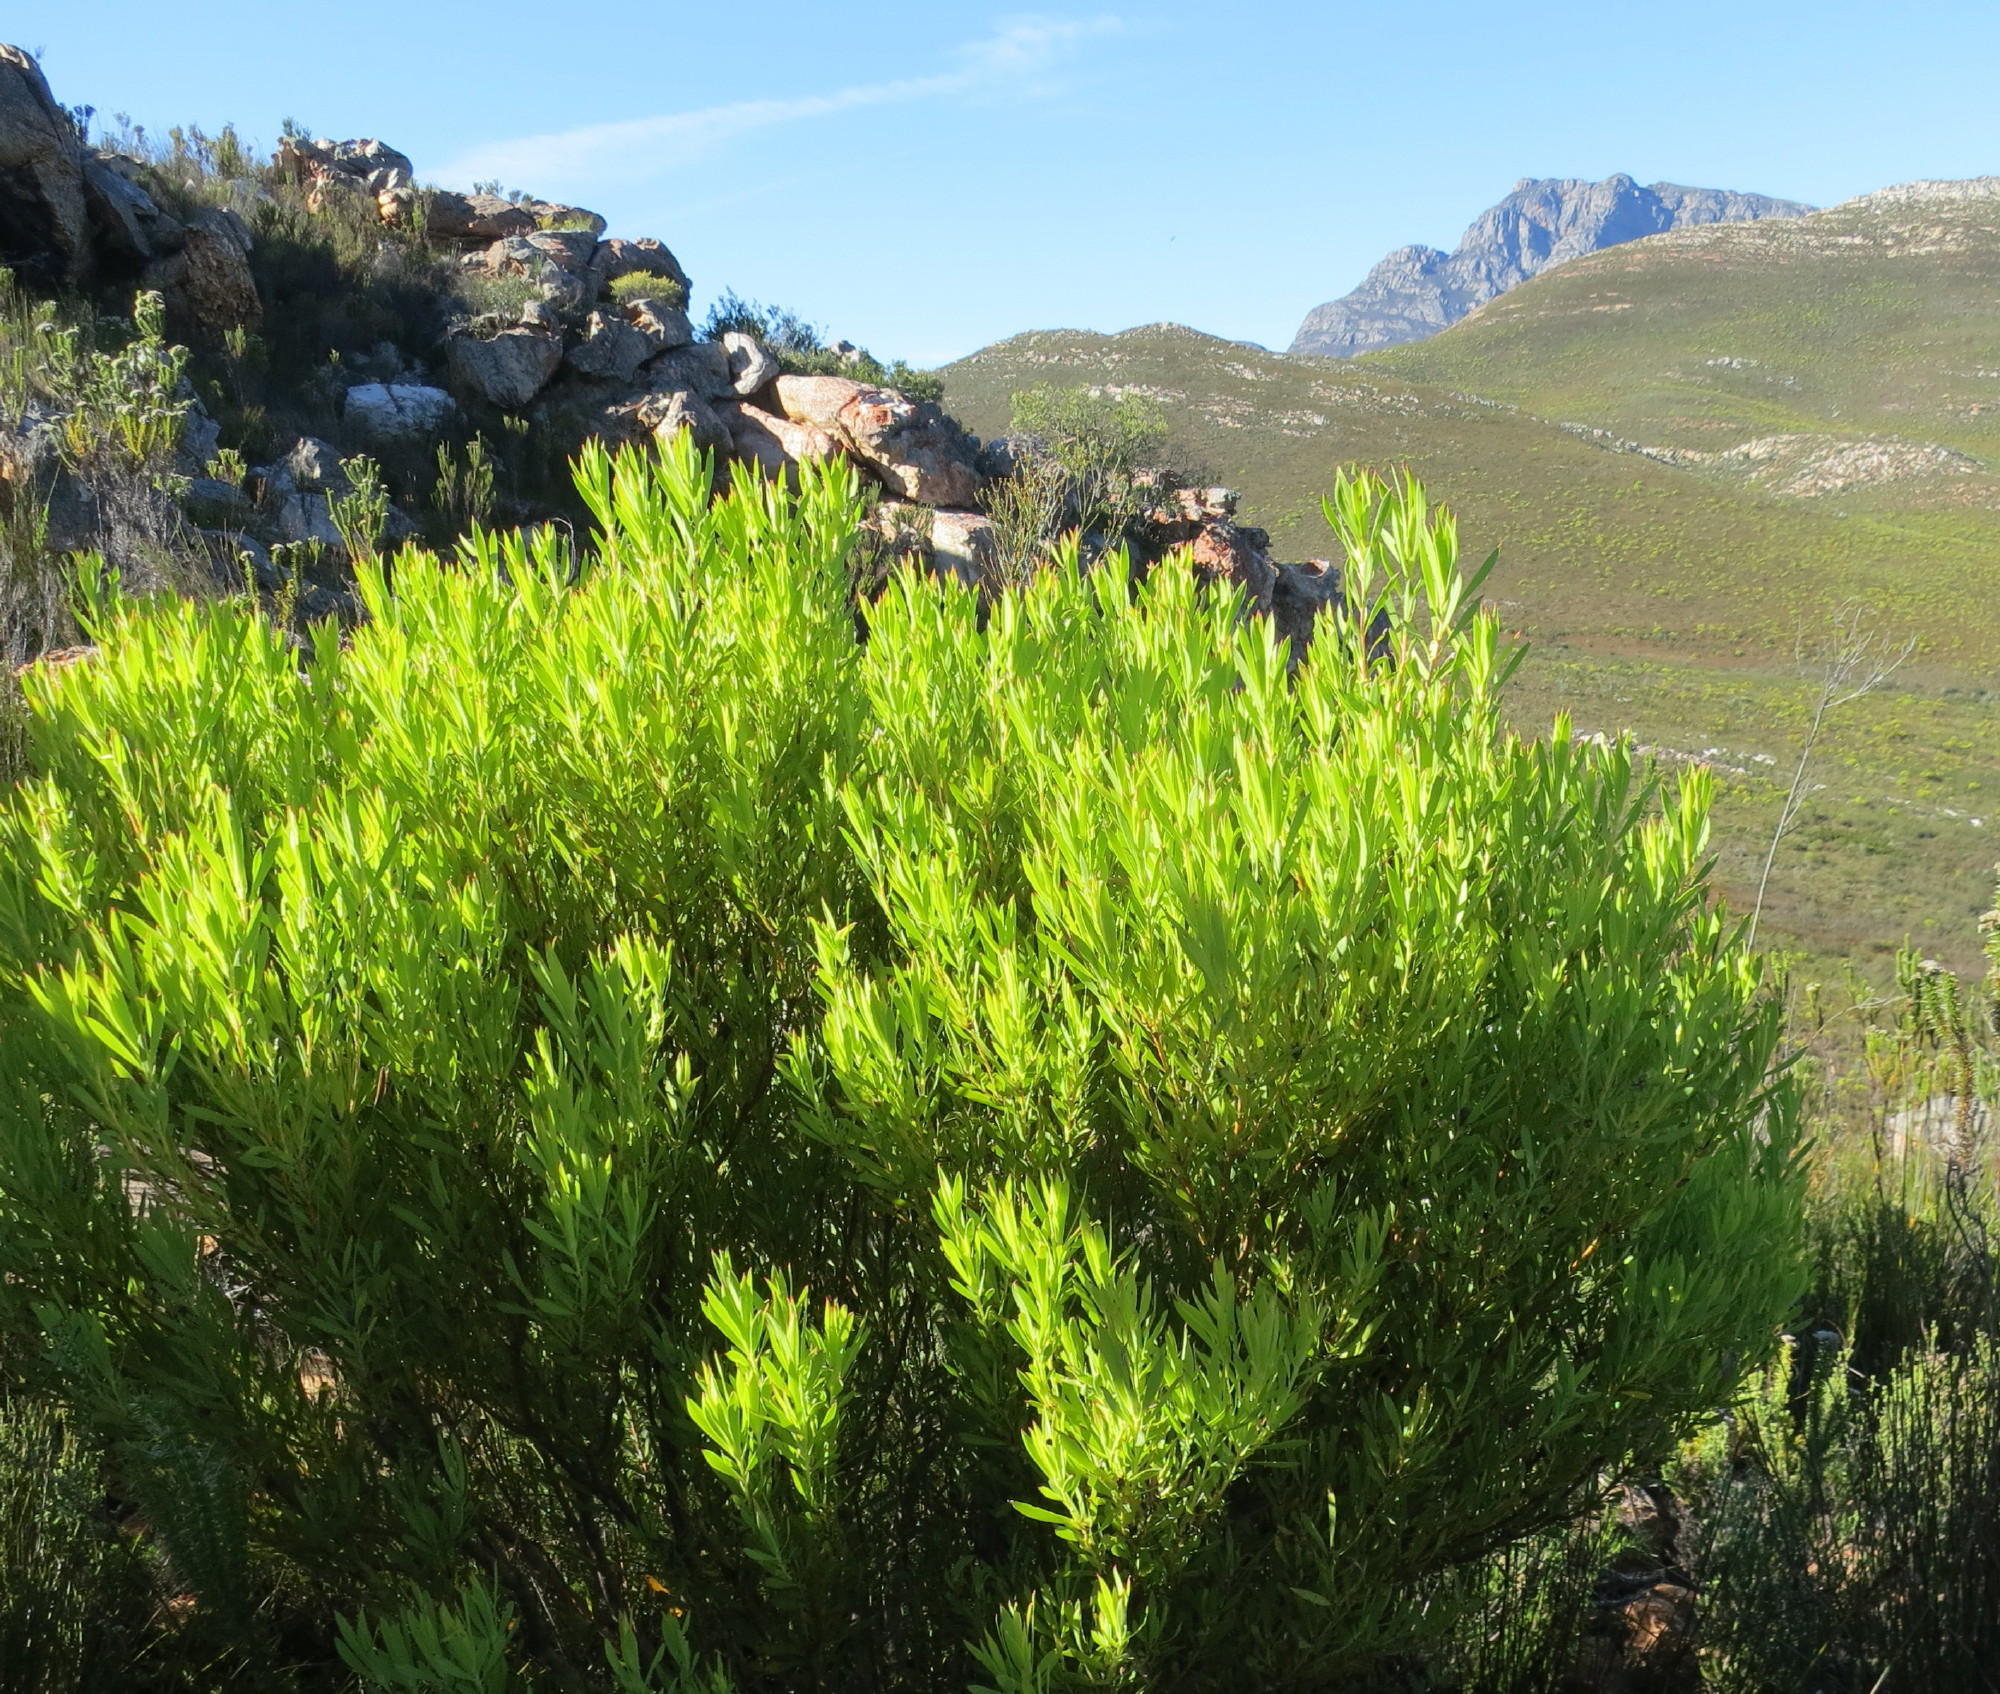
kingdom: Plantae
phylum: Tracheophyta
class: Magnoliopsida
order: Proteales
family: Proteaceae
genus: Leucadendron
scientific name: Leucadendron salignum
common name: Common sunshine conebush
